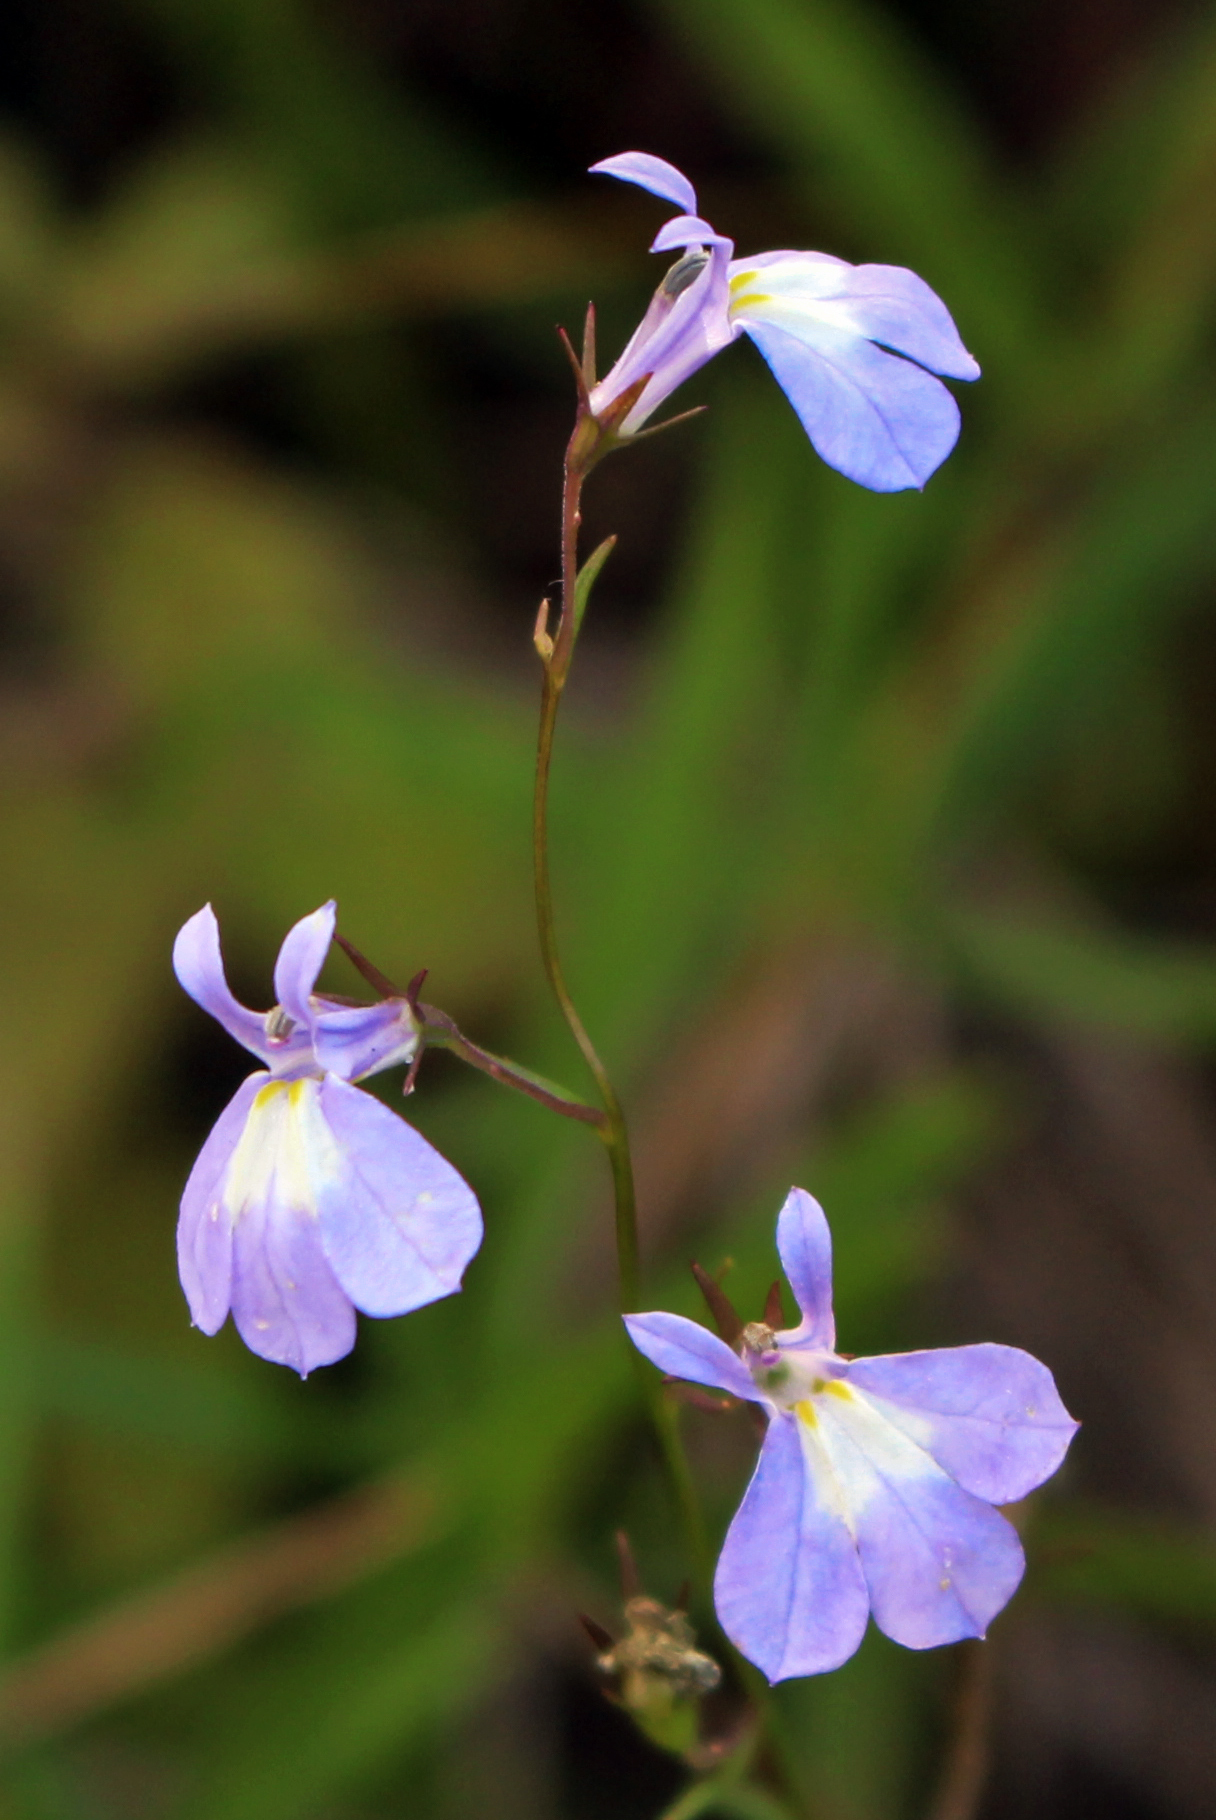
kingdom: Plantae
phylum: Tracheophyta
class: Magnoliopsida
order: Asterales
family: Campanulaceae
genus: Lobelia
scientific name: Lobelia kalmii
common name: Kalm's lobelia
